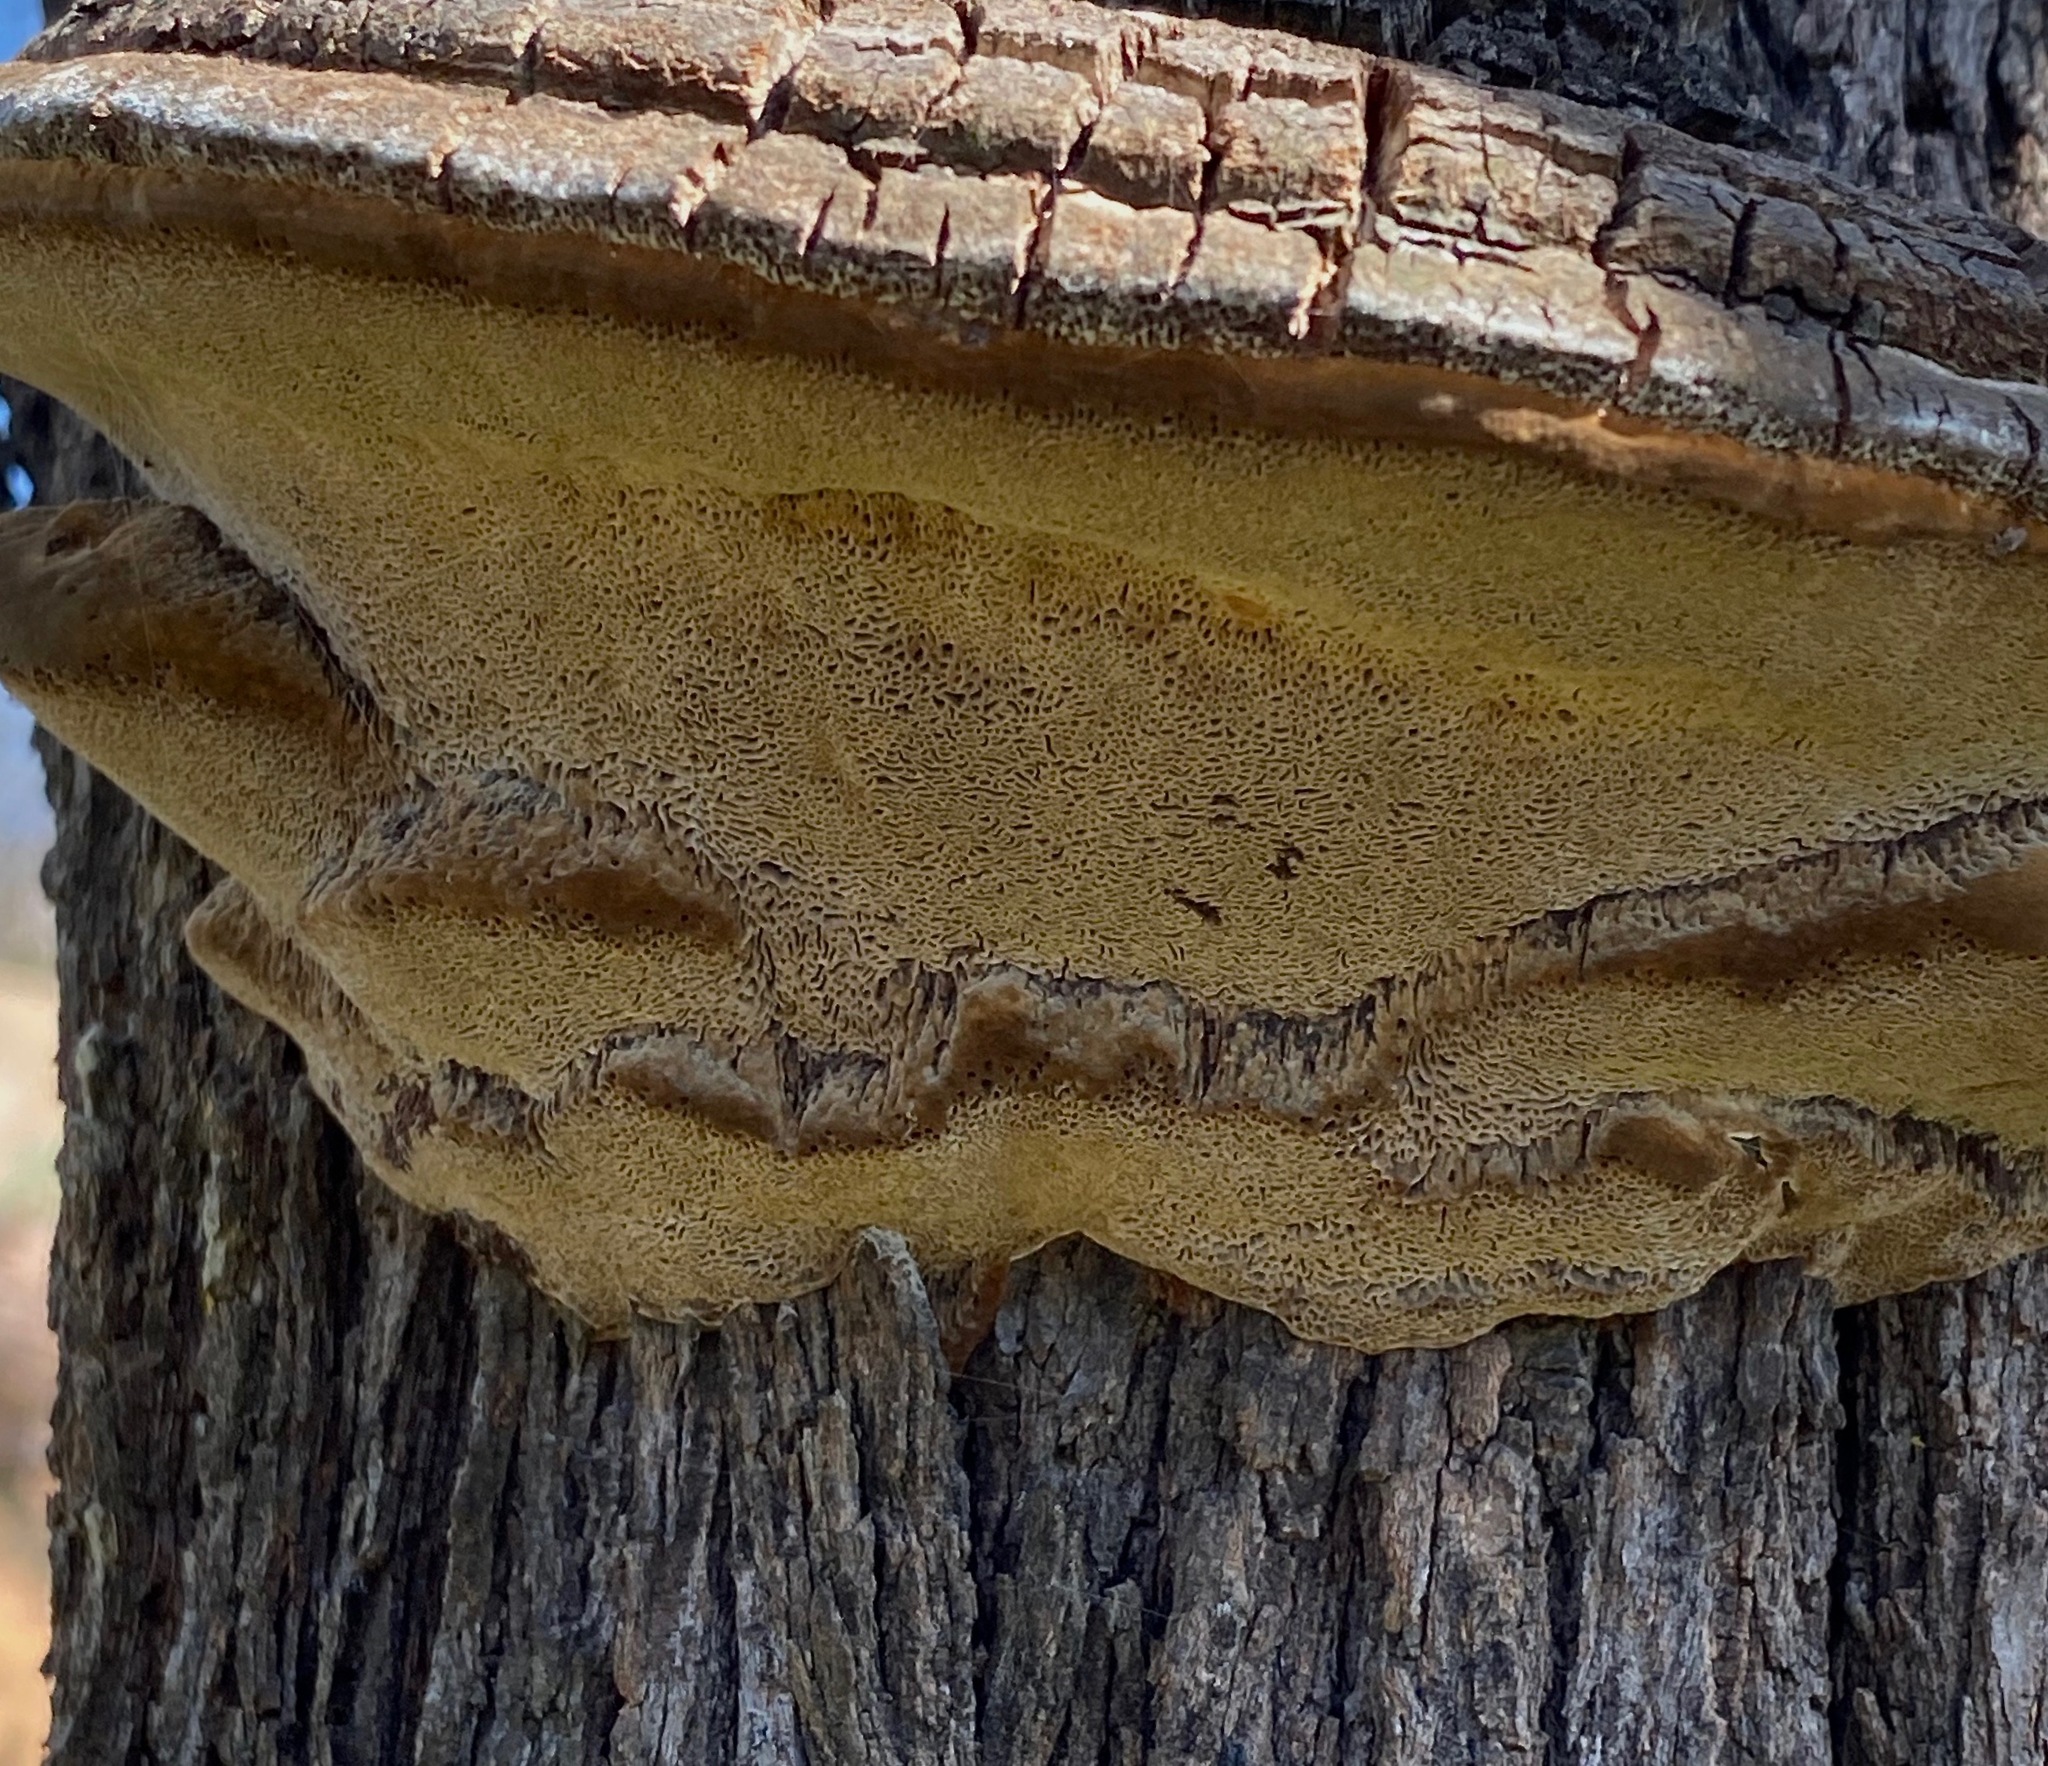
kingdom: Fungi
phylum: Basidiomycota
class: Agaricomycetes
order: Hymenochaetales
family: Hymenochaetaceae
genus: Inocutis
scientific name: Inocutis tamaricis
